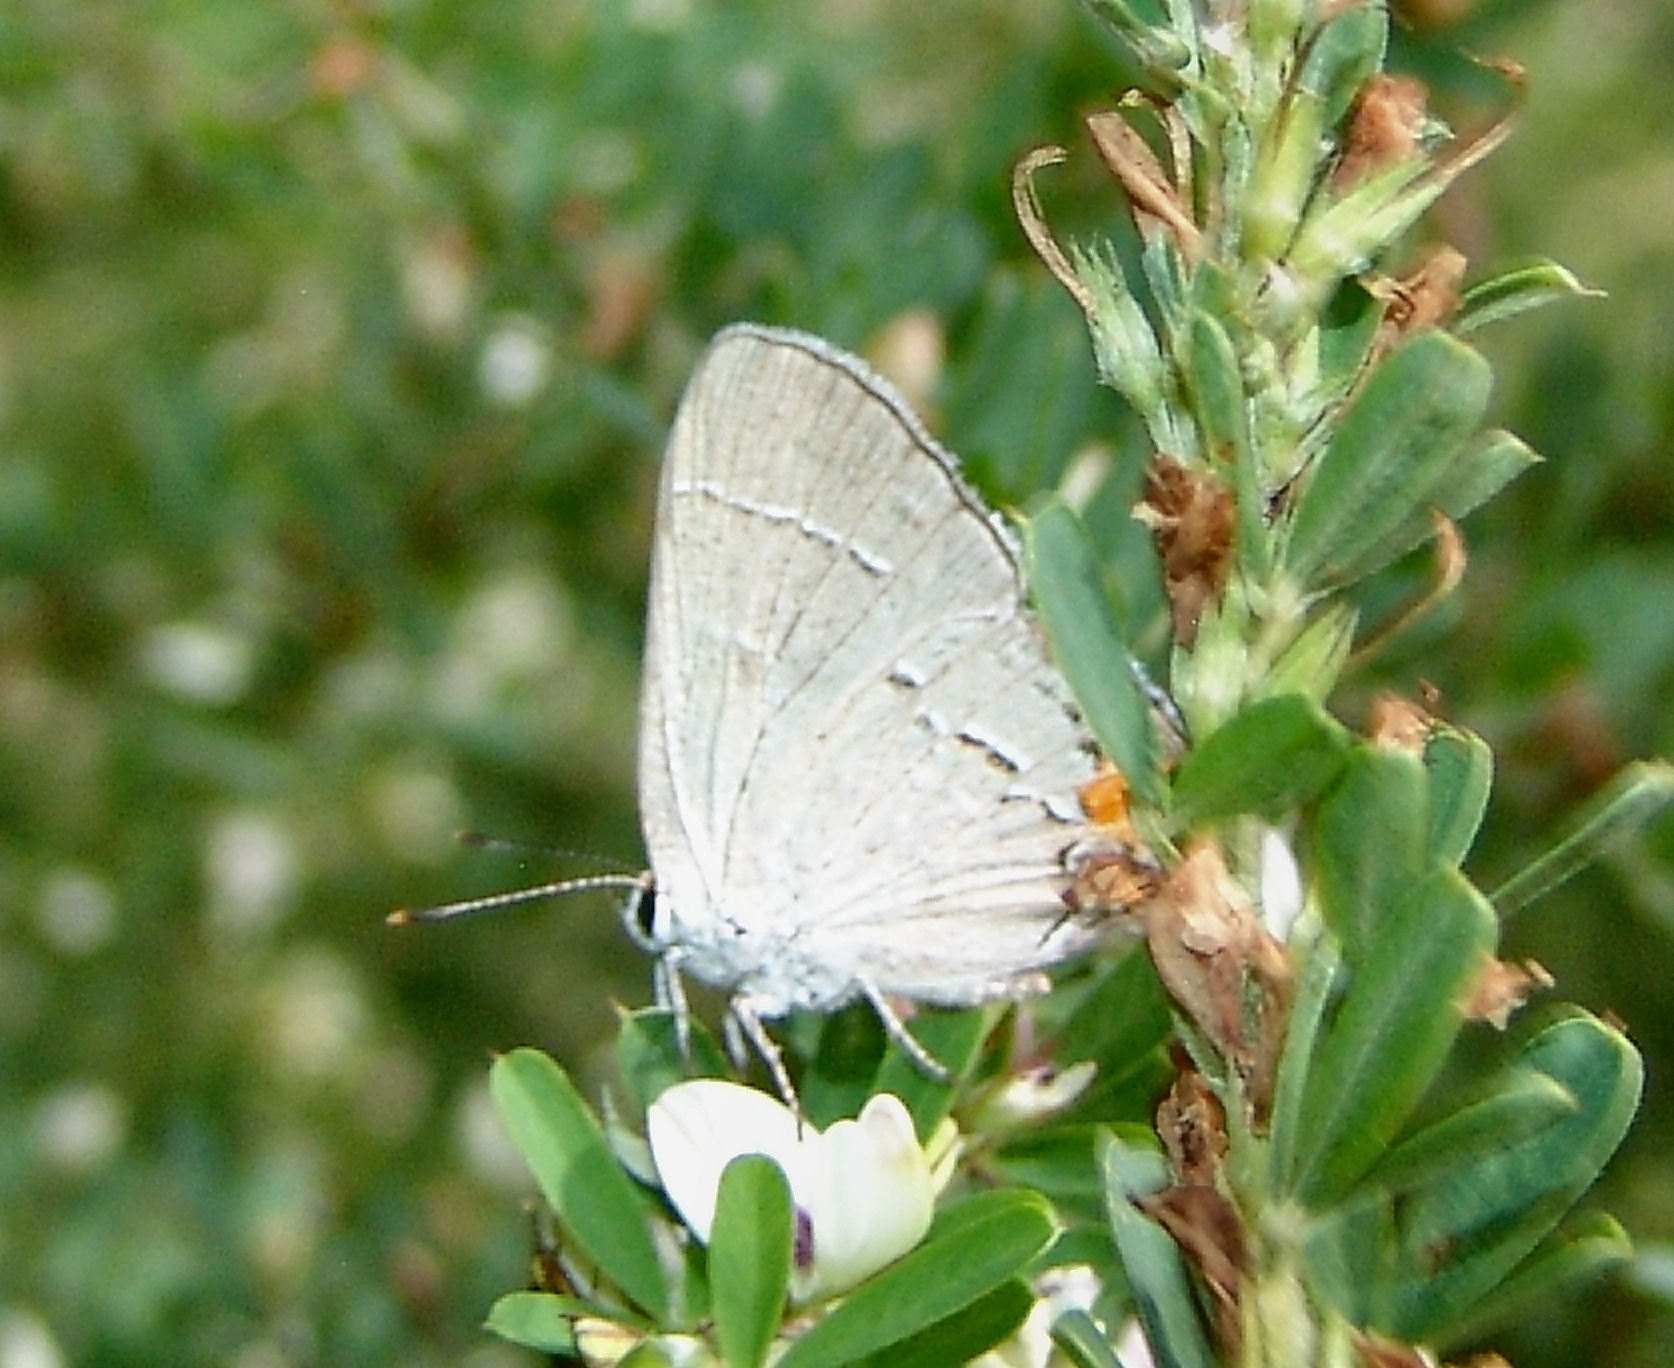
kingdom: Animalia
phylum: Arthropoda
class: Insecta
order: Lepidoptera
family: Lycaenidae
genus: Strymon
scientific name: Strymon melinus
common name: Gray hairstreak
